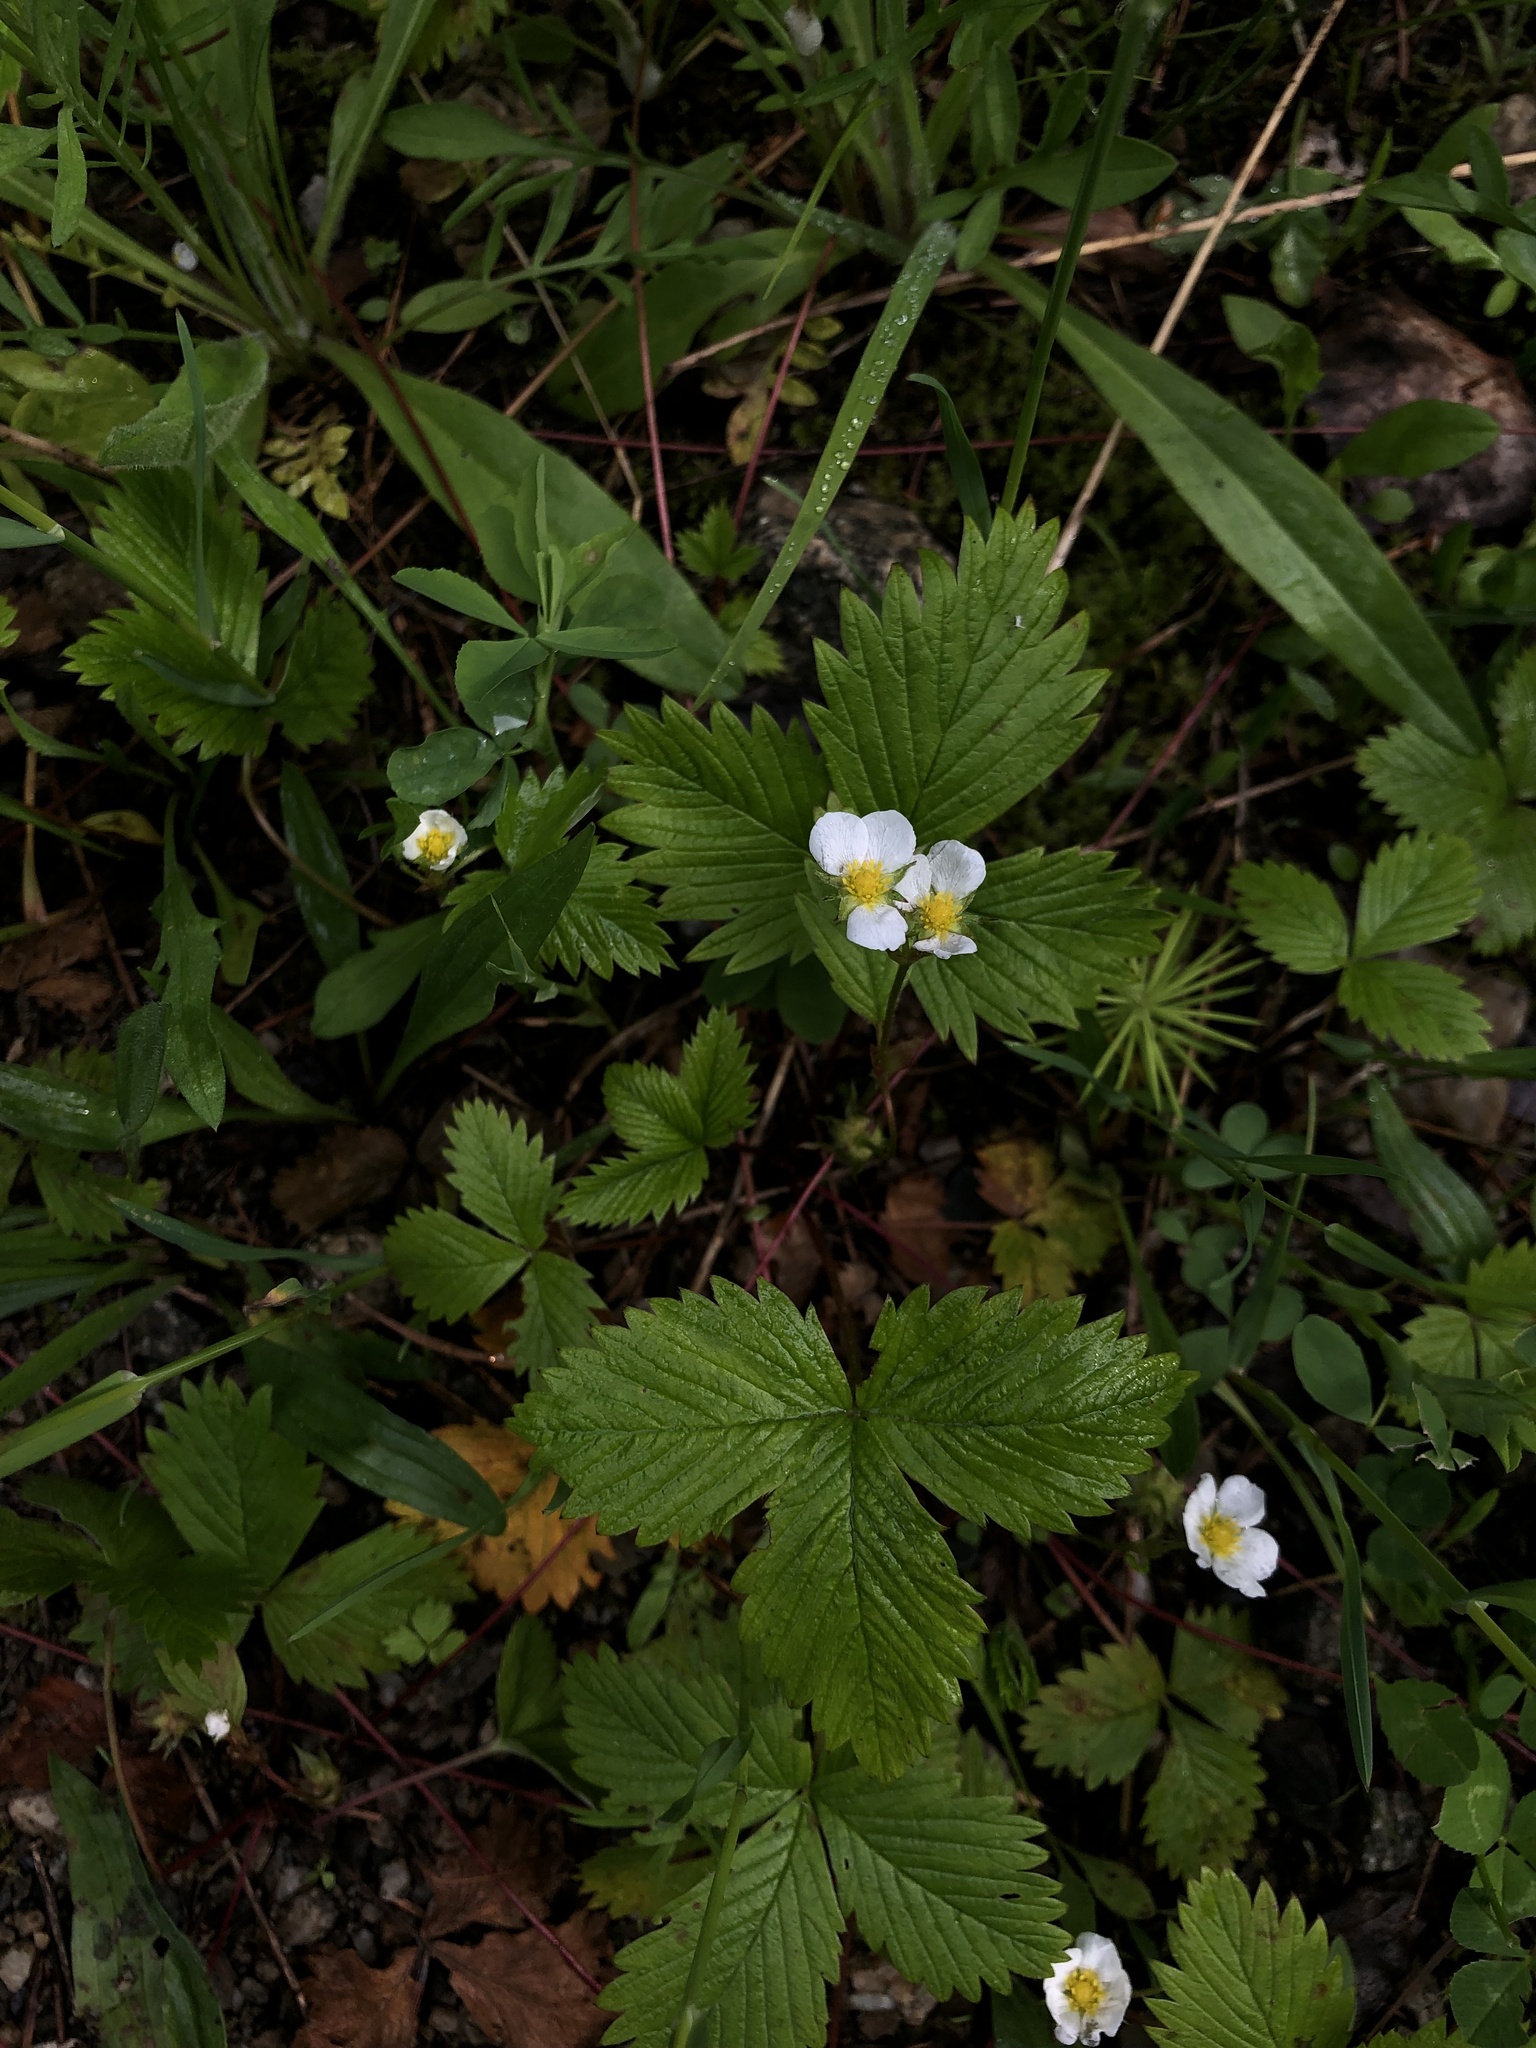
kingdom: Plantae
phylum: Tracheophyta
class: Magnoliopsida
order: Rosales
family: Rosaceae
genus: Fragaria
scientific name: Fragaria vesca
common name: Wild strawberry
